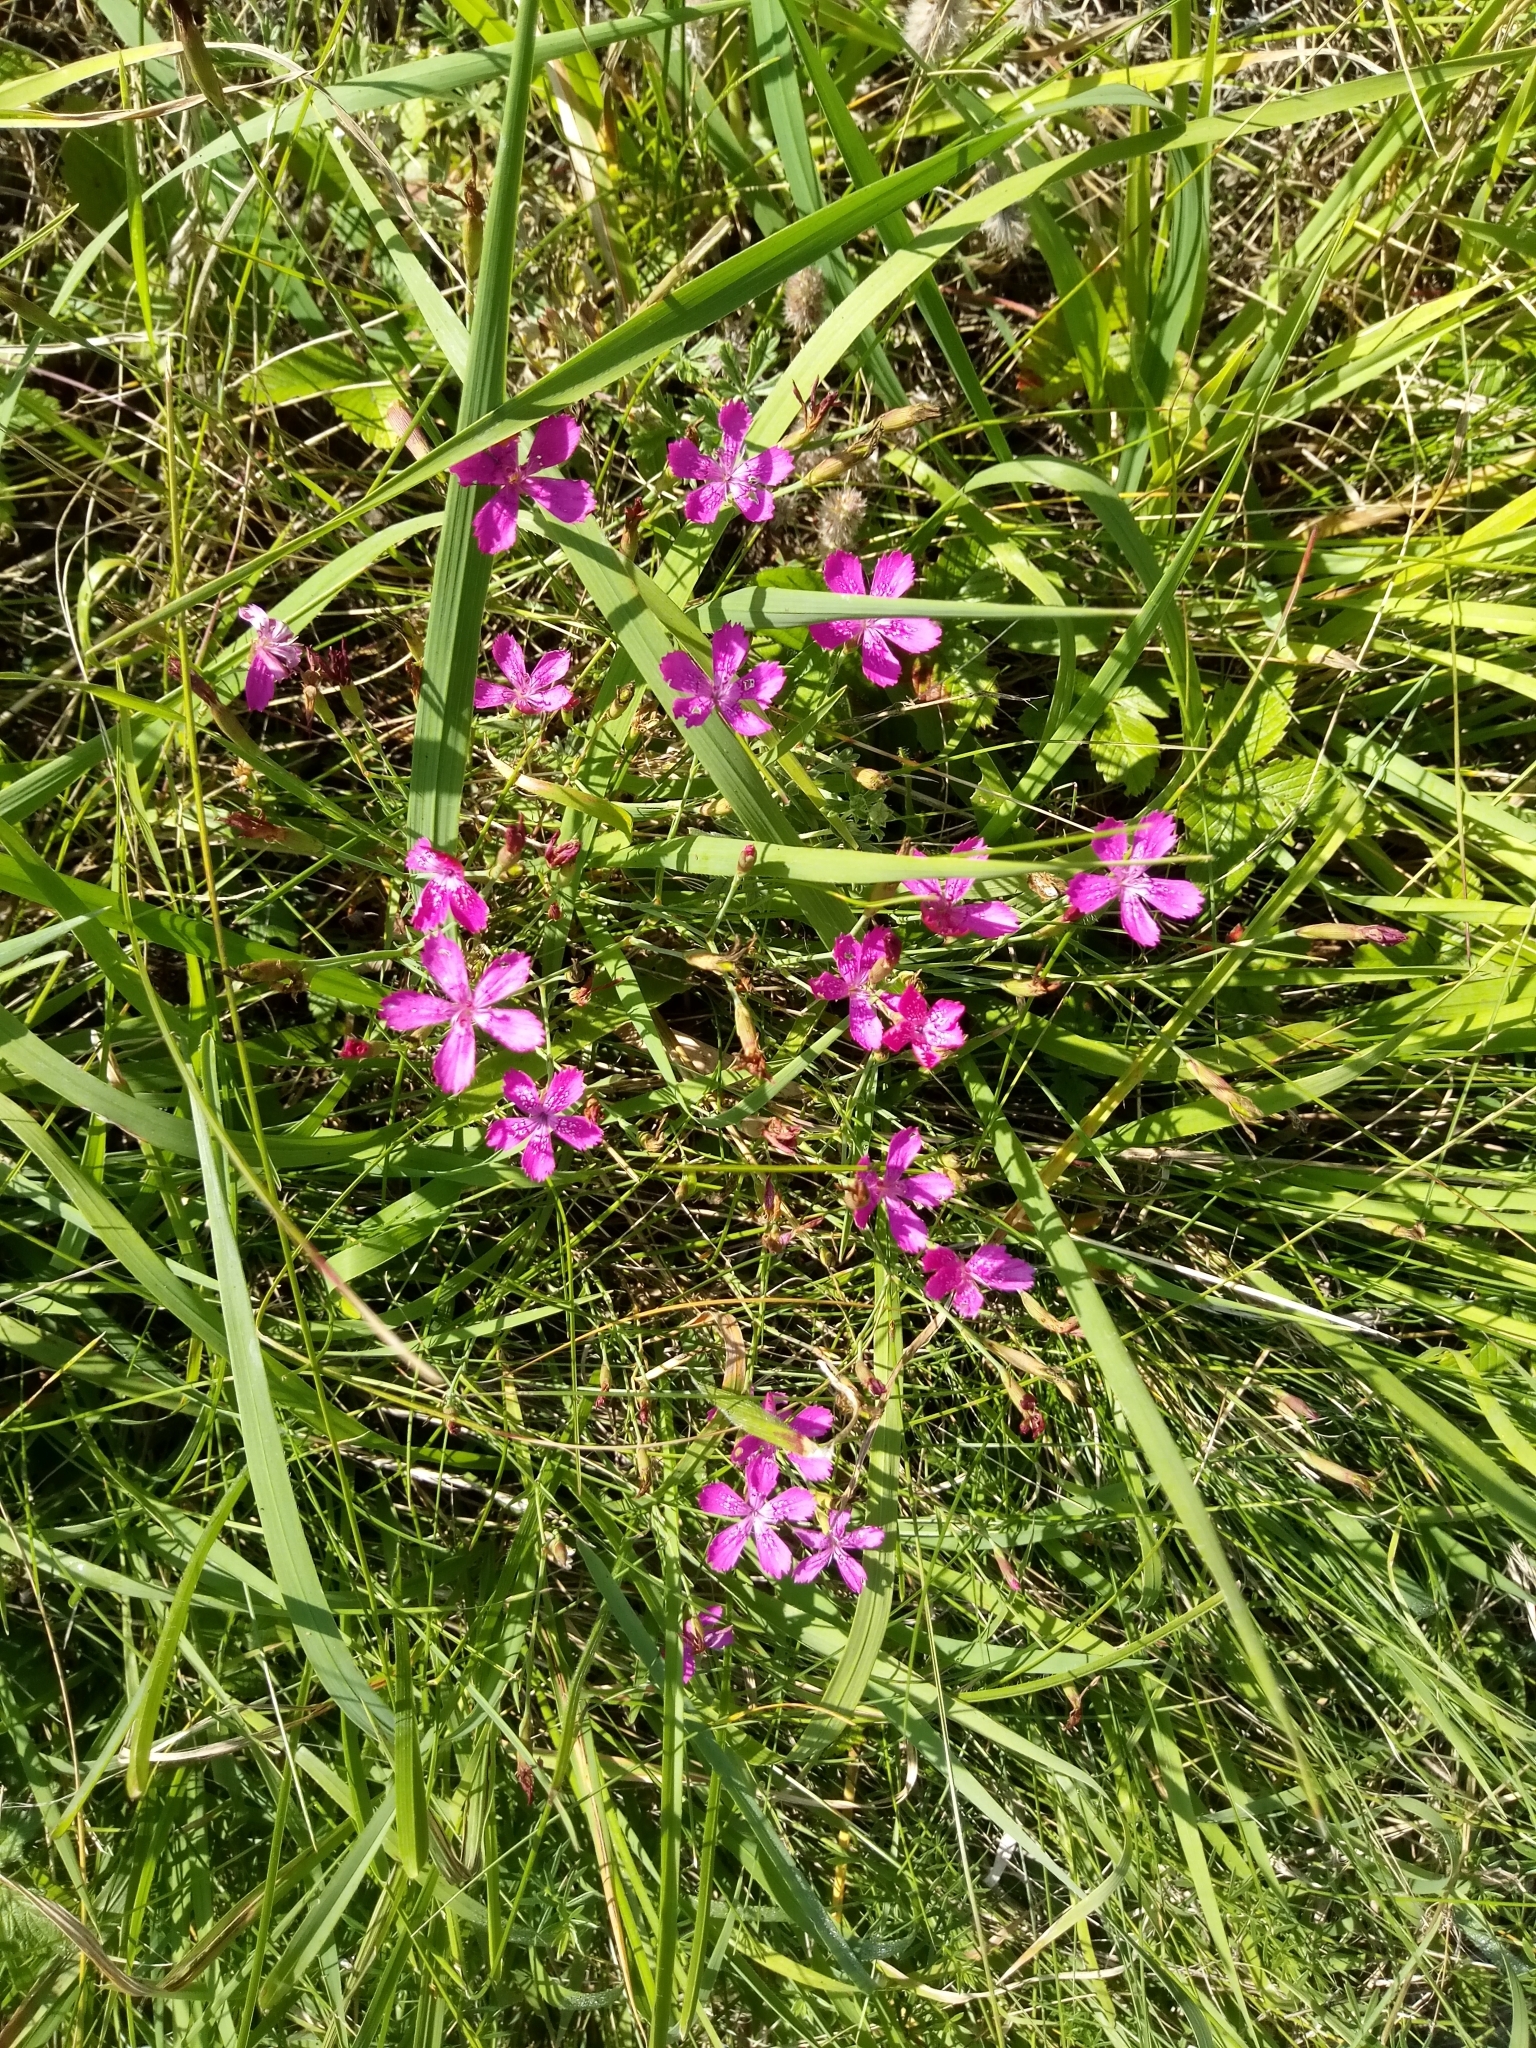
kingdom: Plantae
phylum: Tracheophyta
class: Magnoliopsida
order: Caryophyllales
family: Caryophyllaceae
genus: Dianthus
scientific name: Dianthus deltoides
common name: Maiden pink
